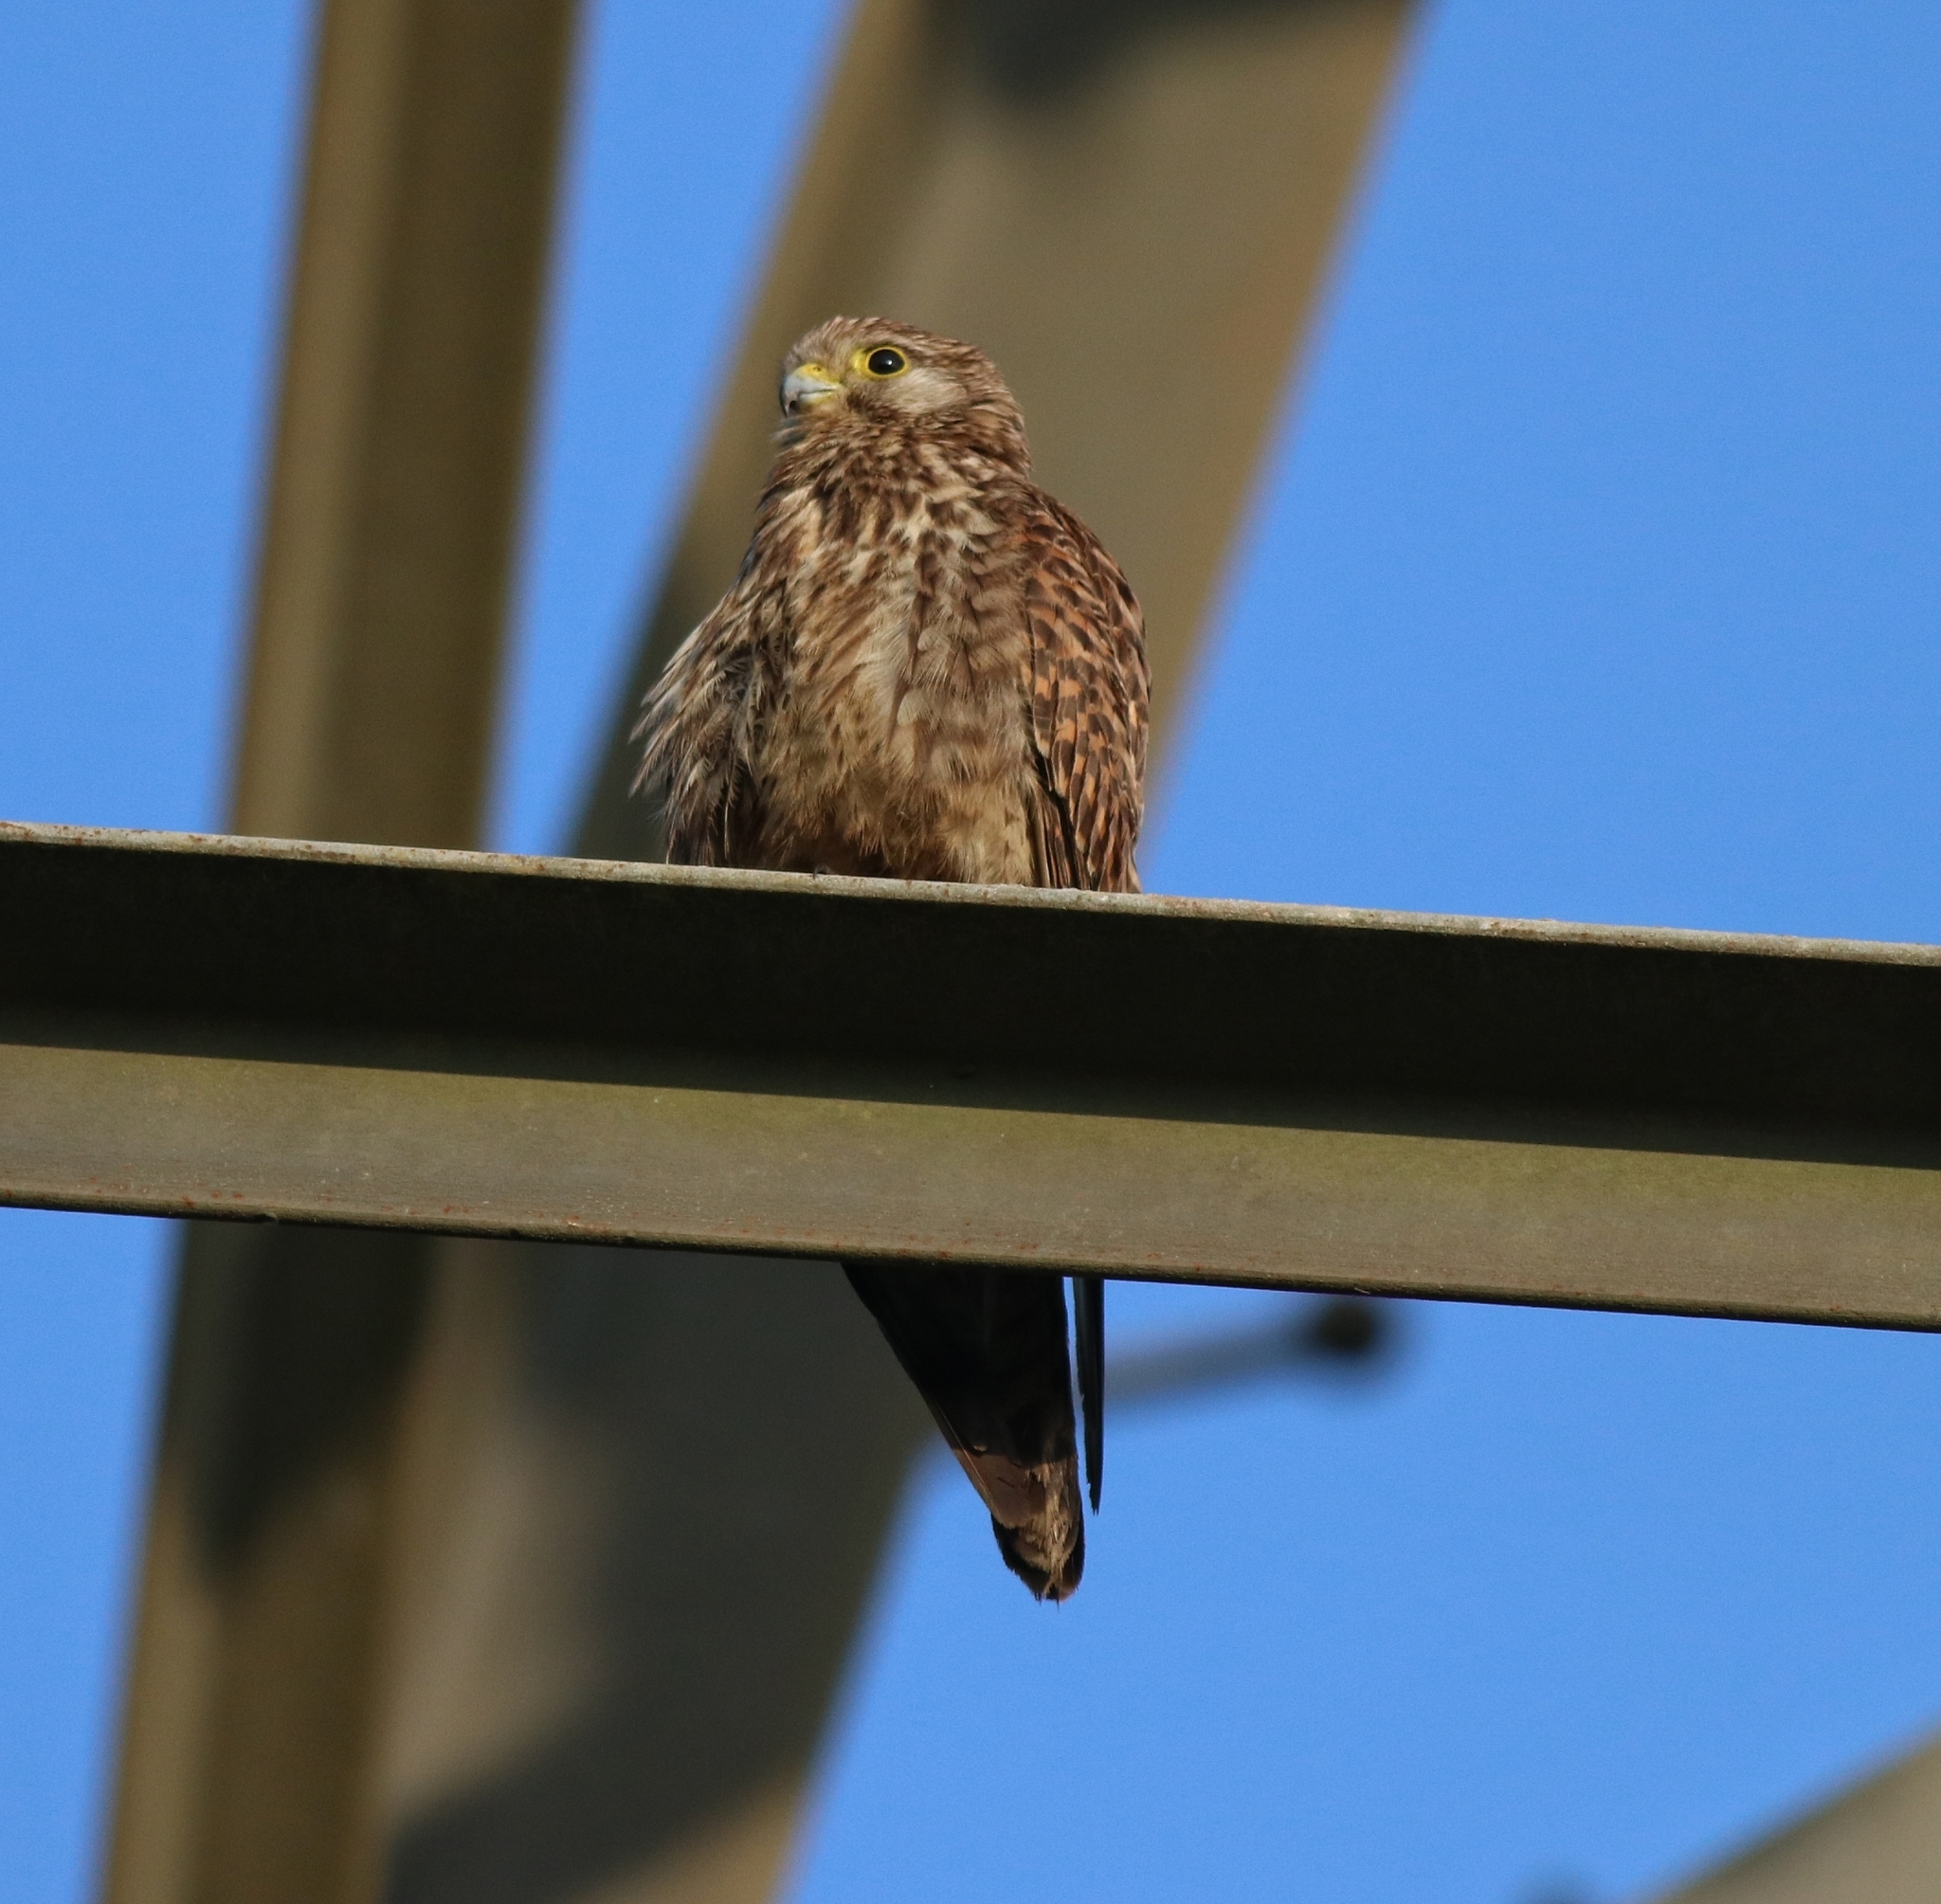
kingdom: Animalia
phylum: Chordata
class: Aves
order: Falconiformes
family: Falconidae
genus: Falco
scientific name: Falco tinnunculus
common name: Common kestrel
